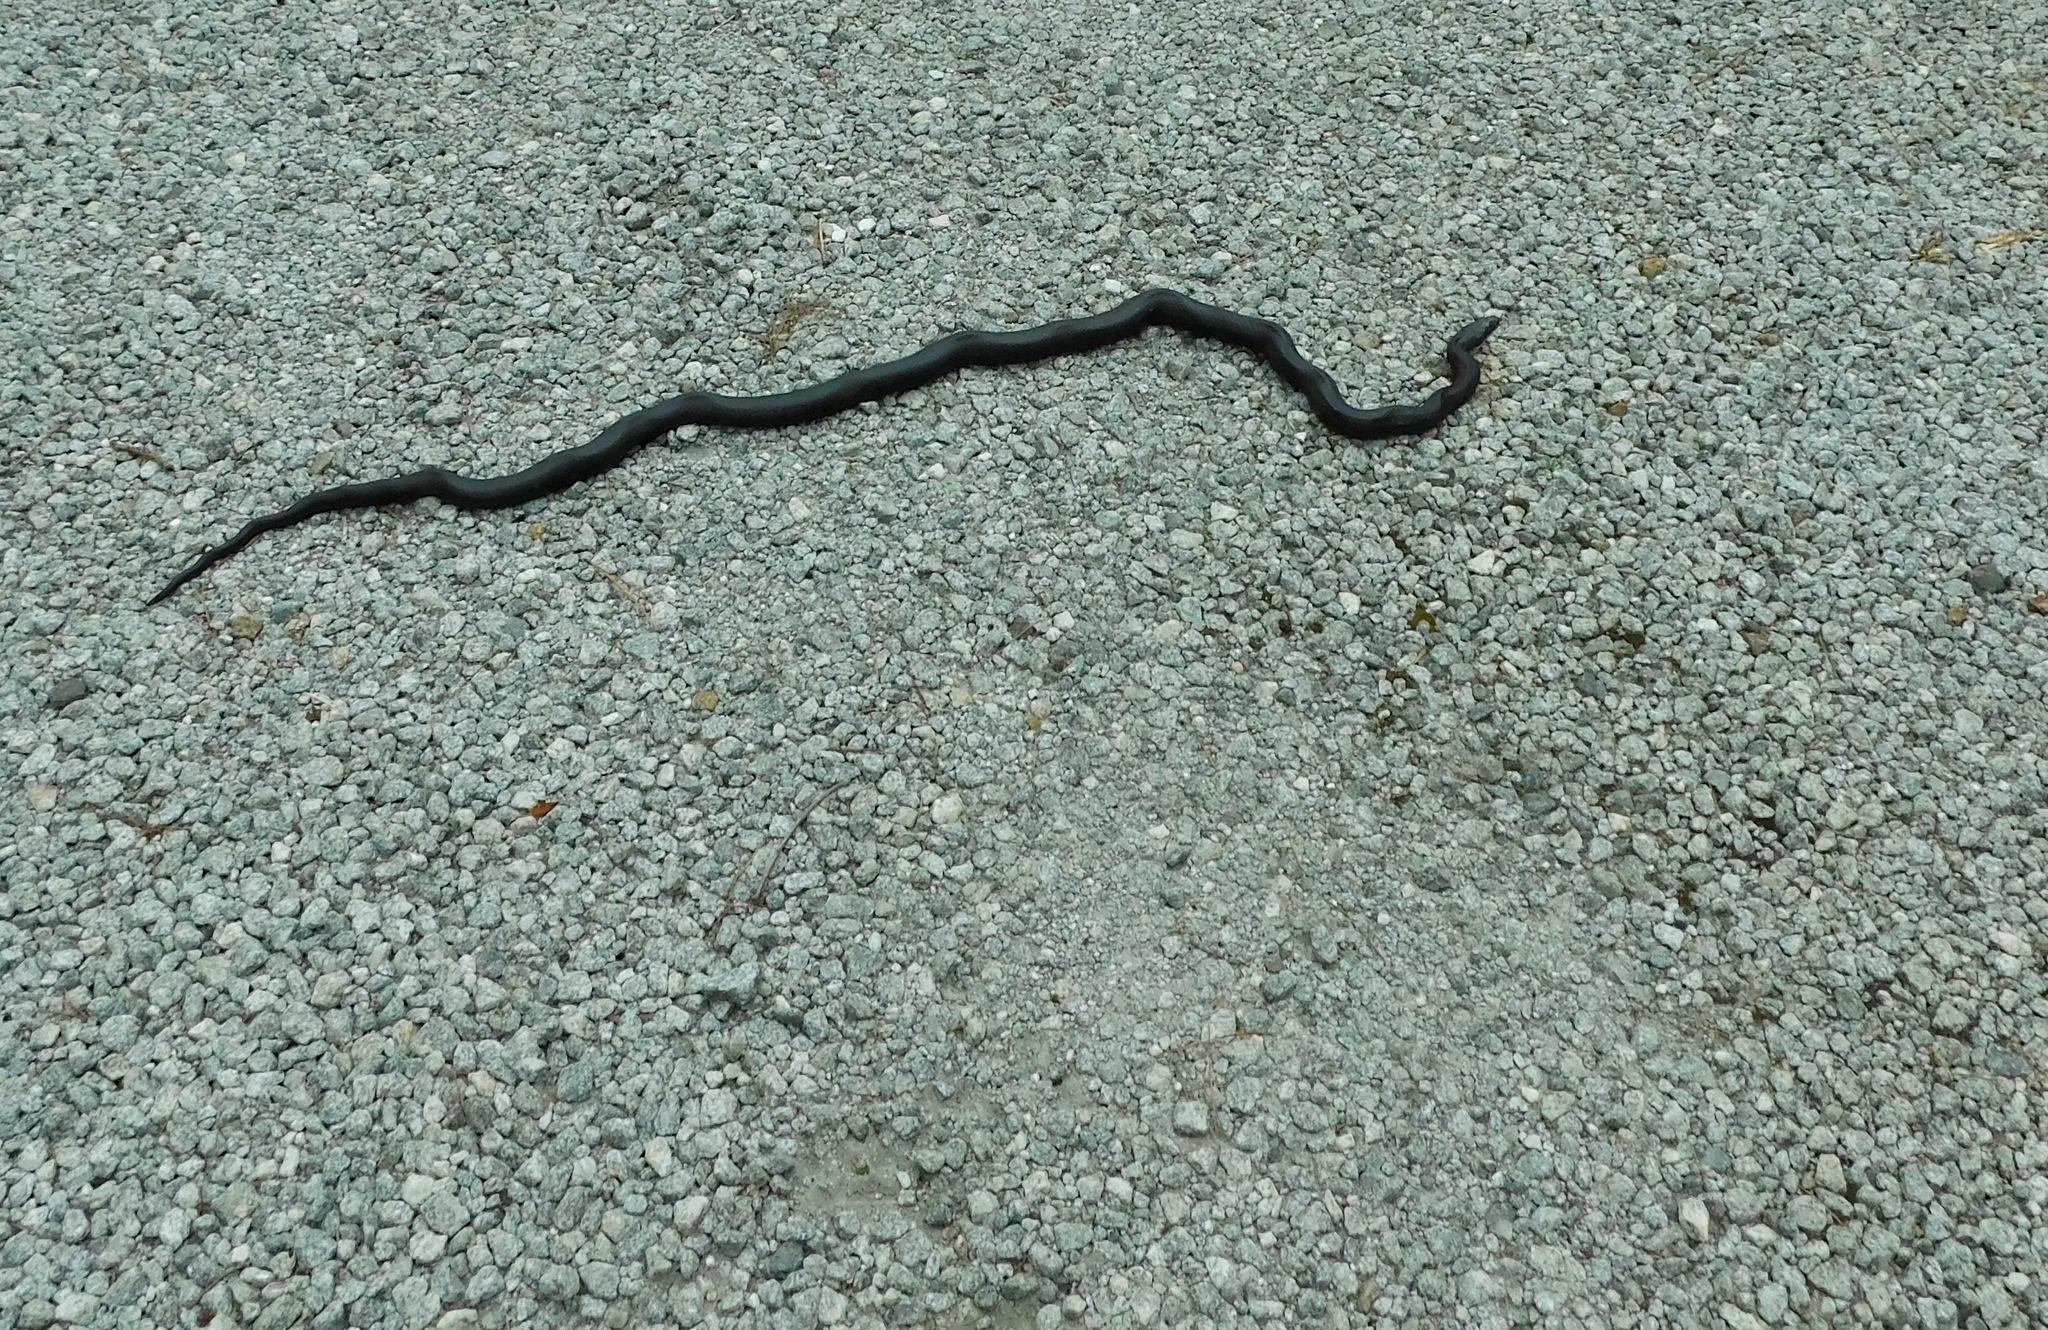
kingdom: Animalia
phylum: Chordata
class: Squamata
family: Colubridae
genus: Pantherophis
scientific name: Pantherophis
